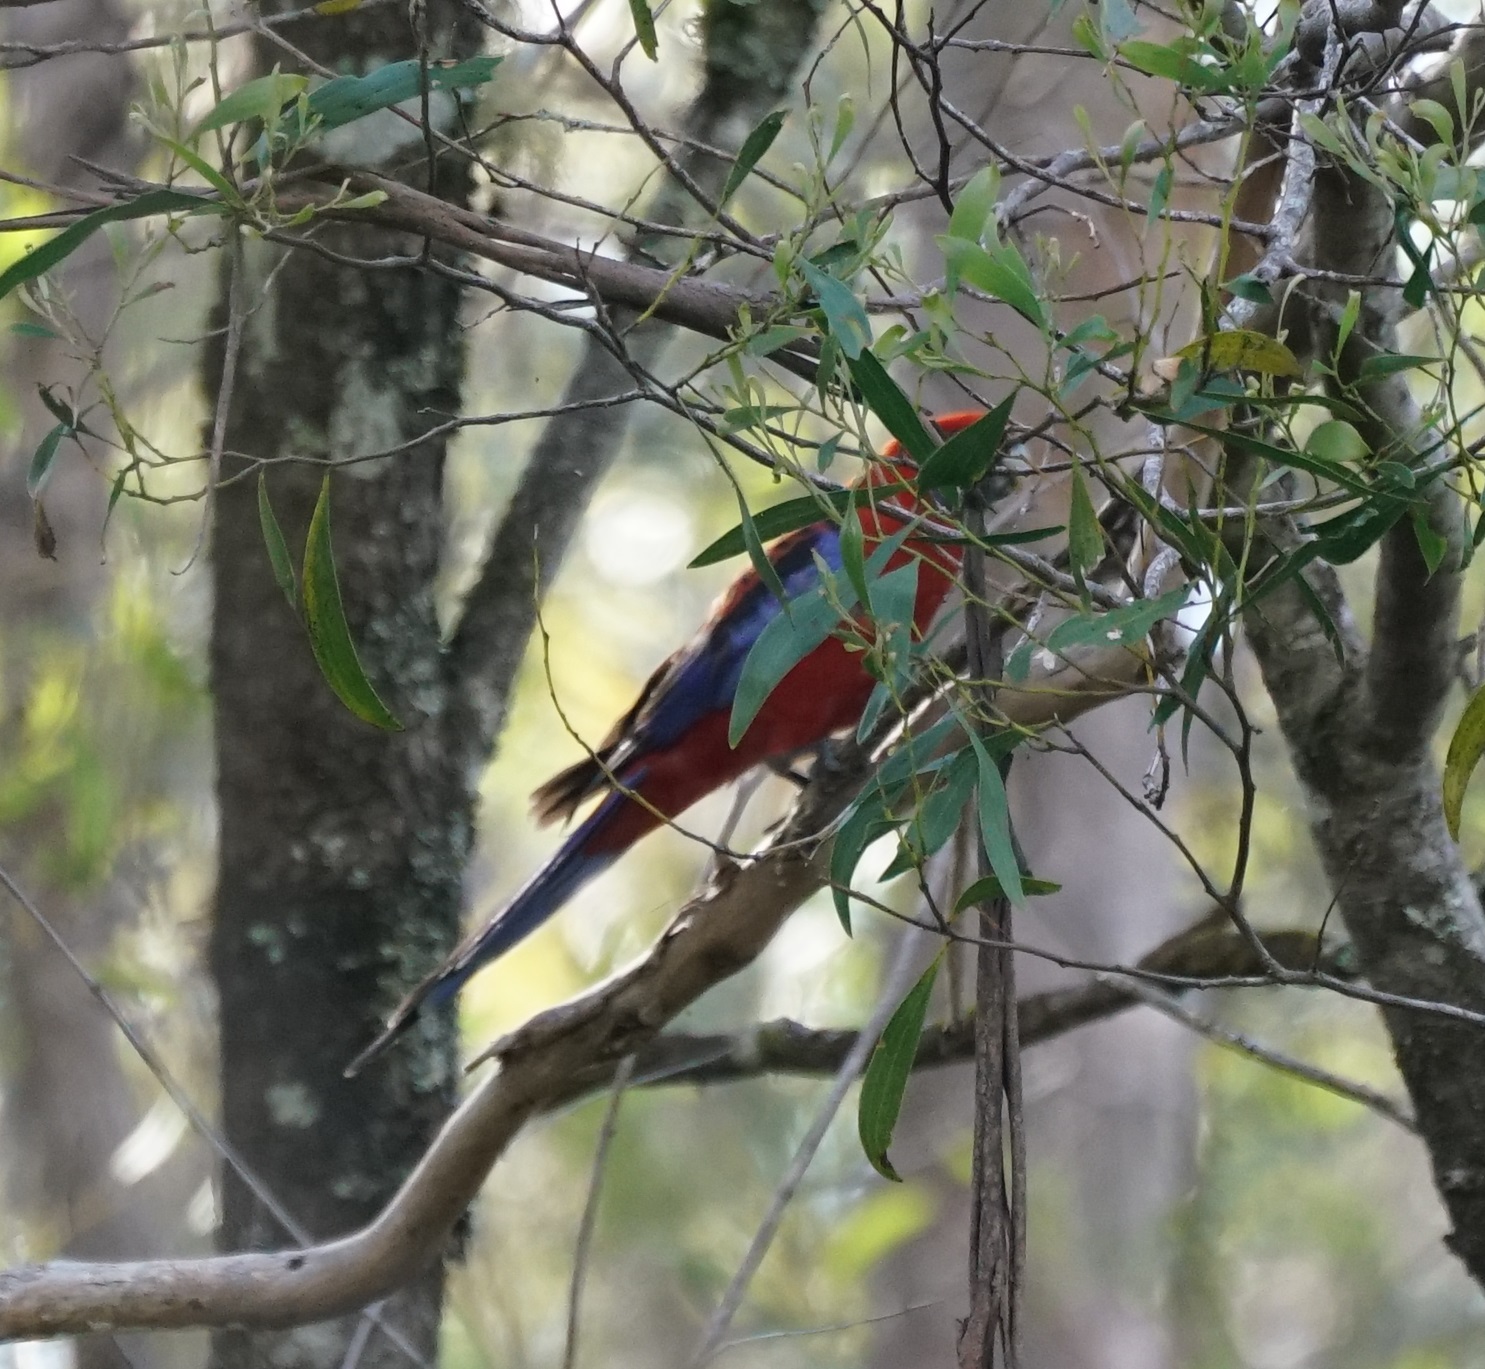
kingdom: Animalia
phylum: Chordata
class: Aves
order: Psittaciformes
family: Psittacidae
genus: Platycercus
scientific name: Platycercus elegans
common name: Crimson rosella
